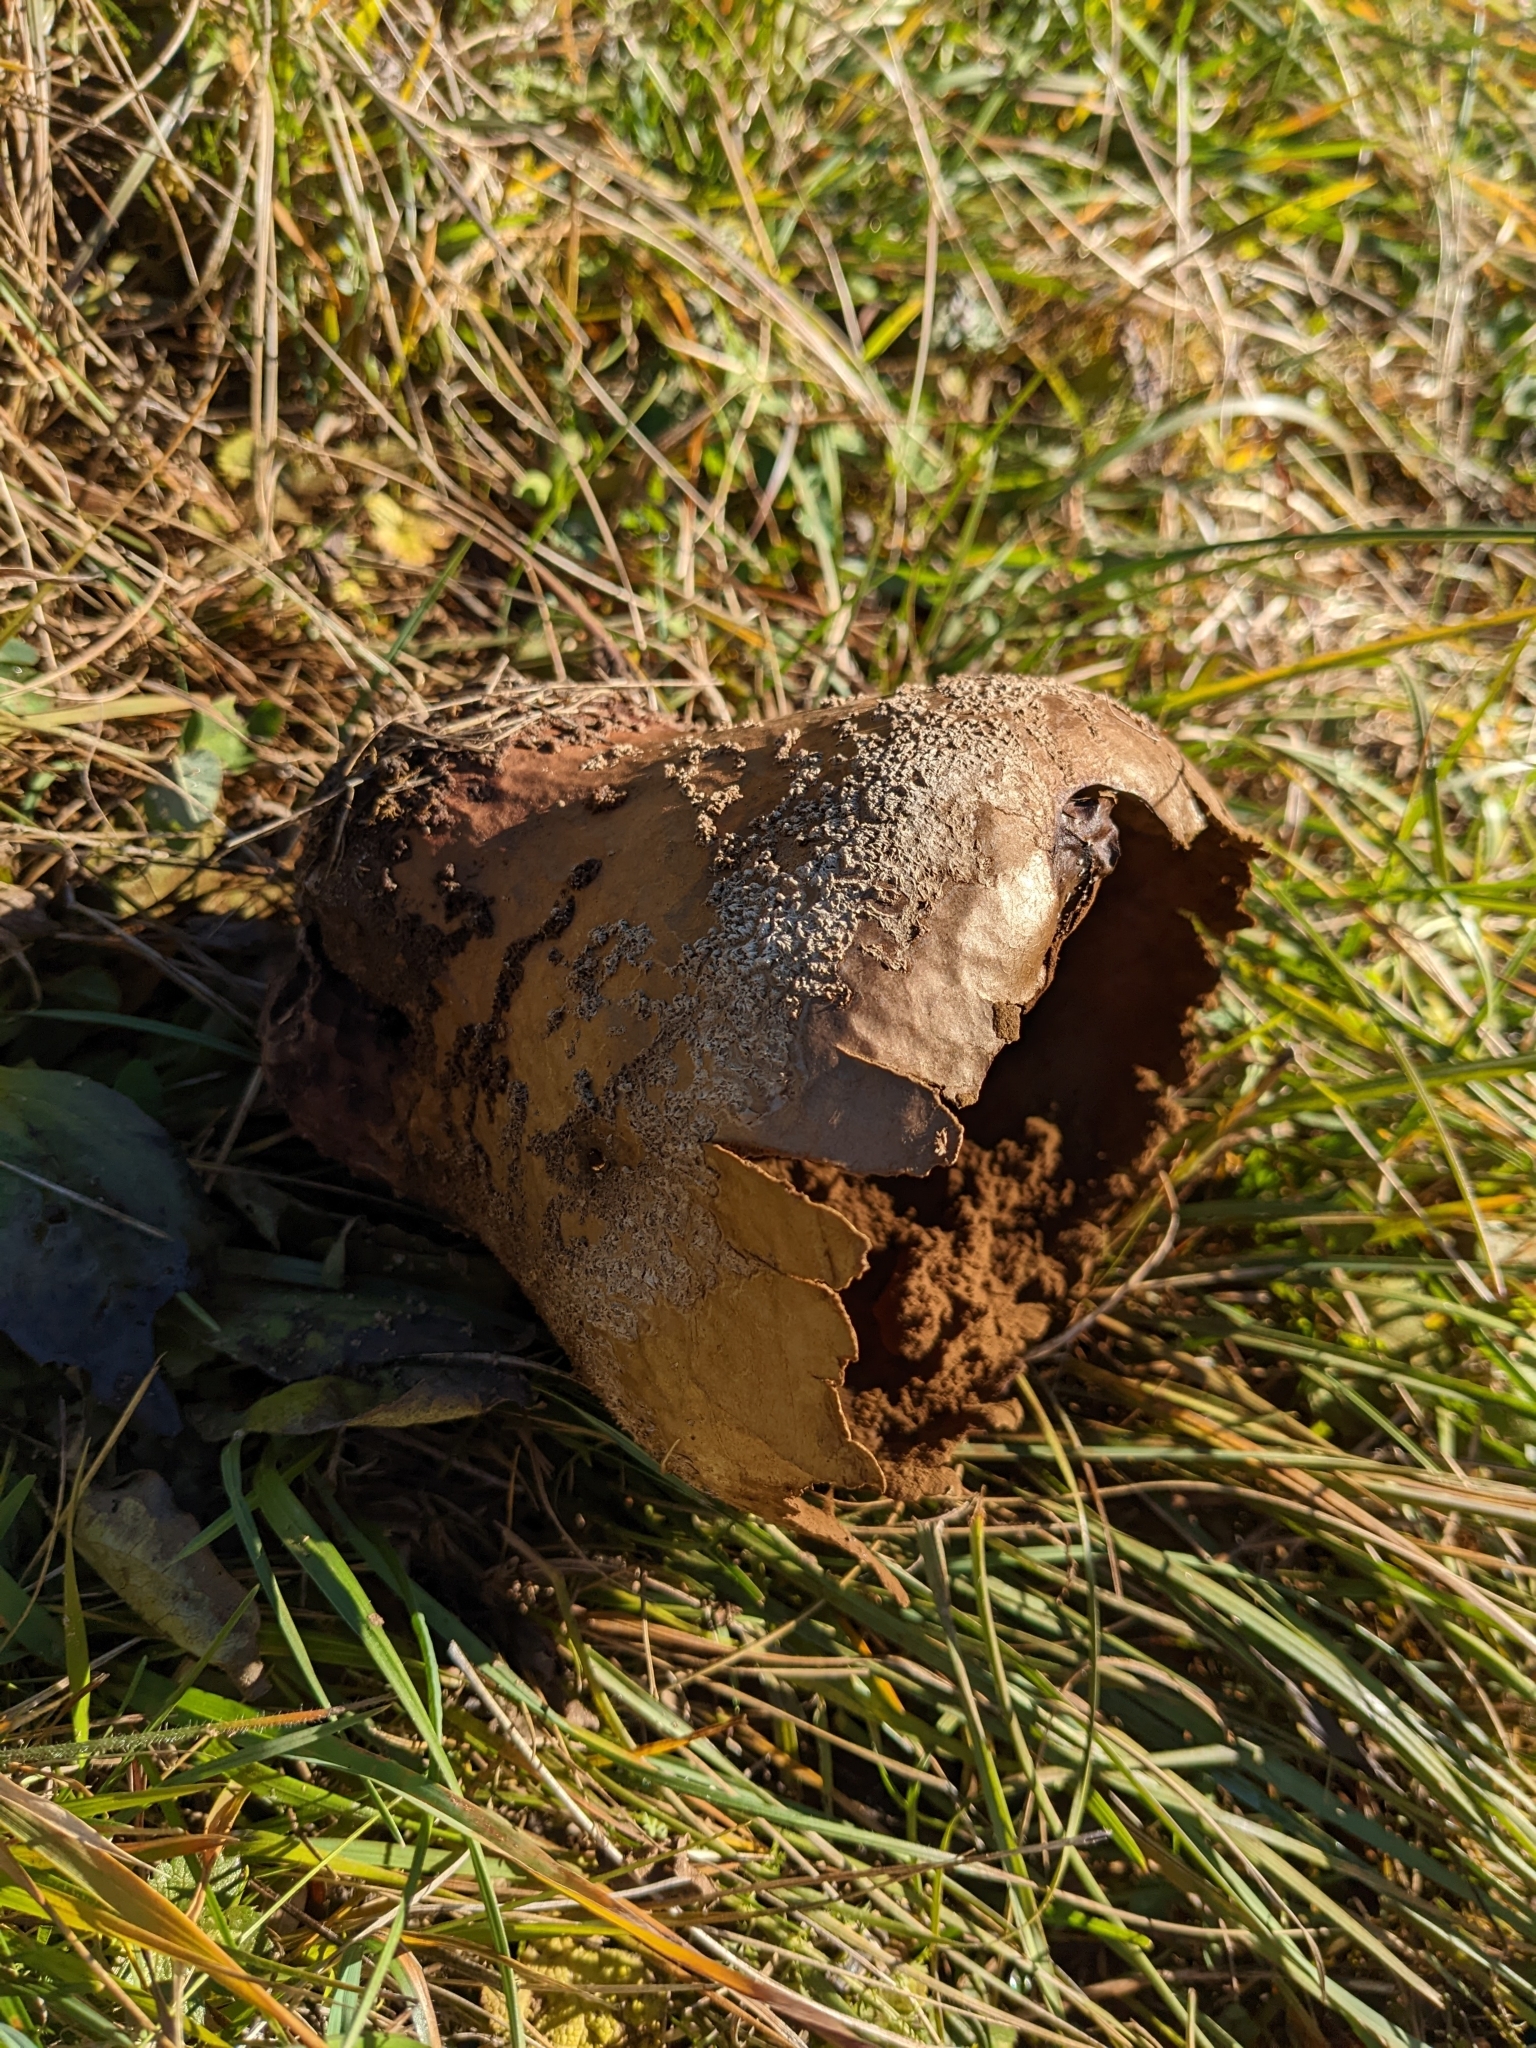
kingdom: Fungi
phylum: Basidiomycota
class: Agaricomycetes
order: Agaricales
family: Lycoperdaceae
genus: Bovistella
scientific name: Bovistella utriformis
